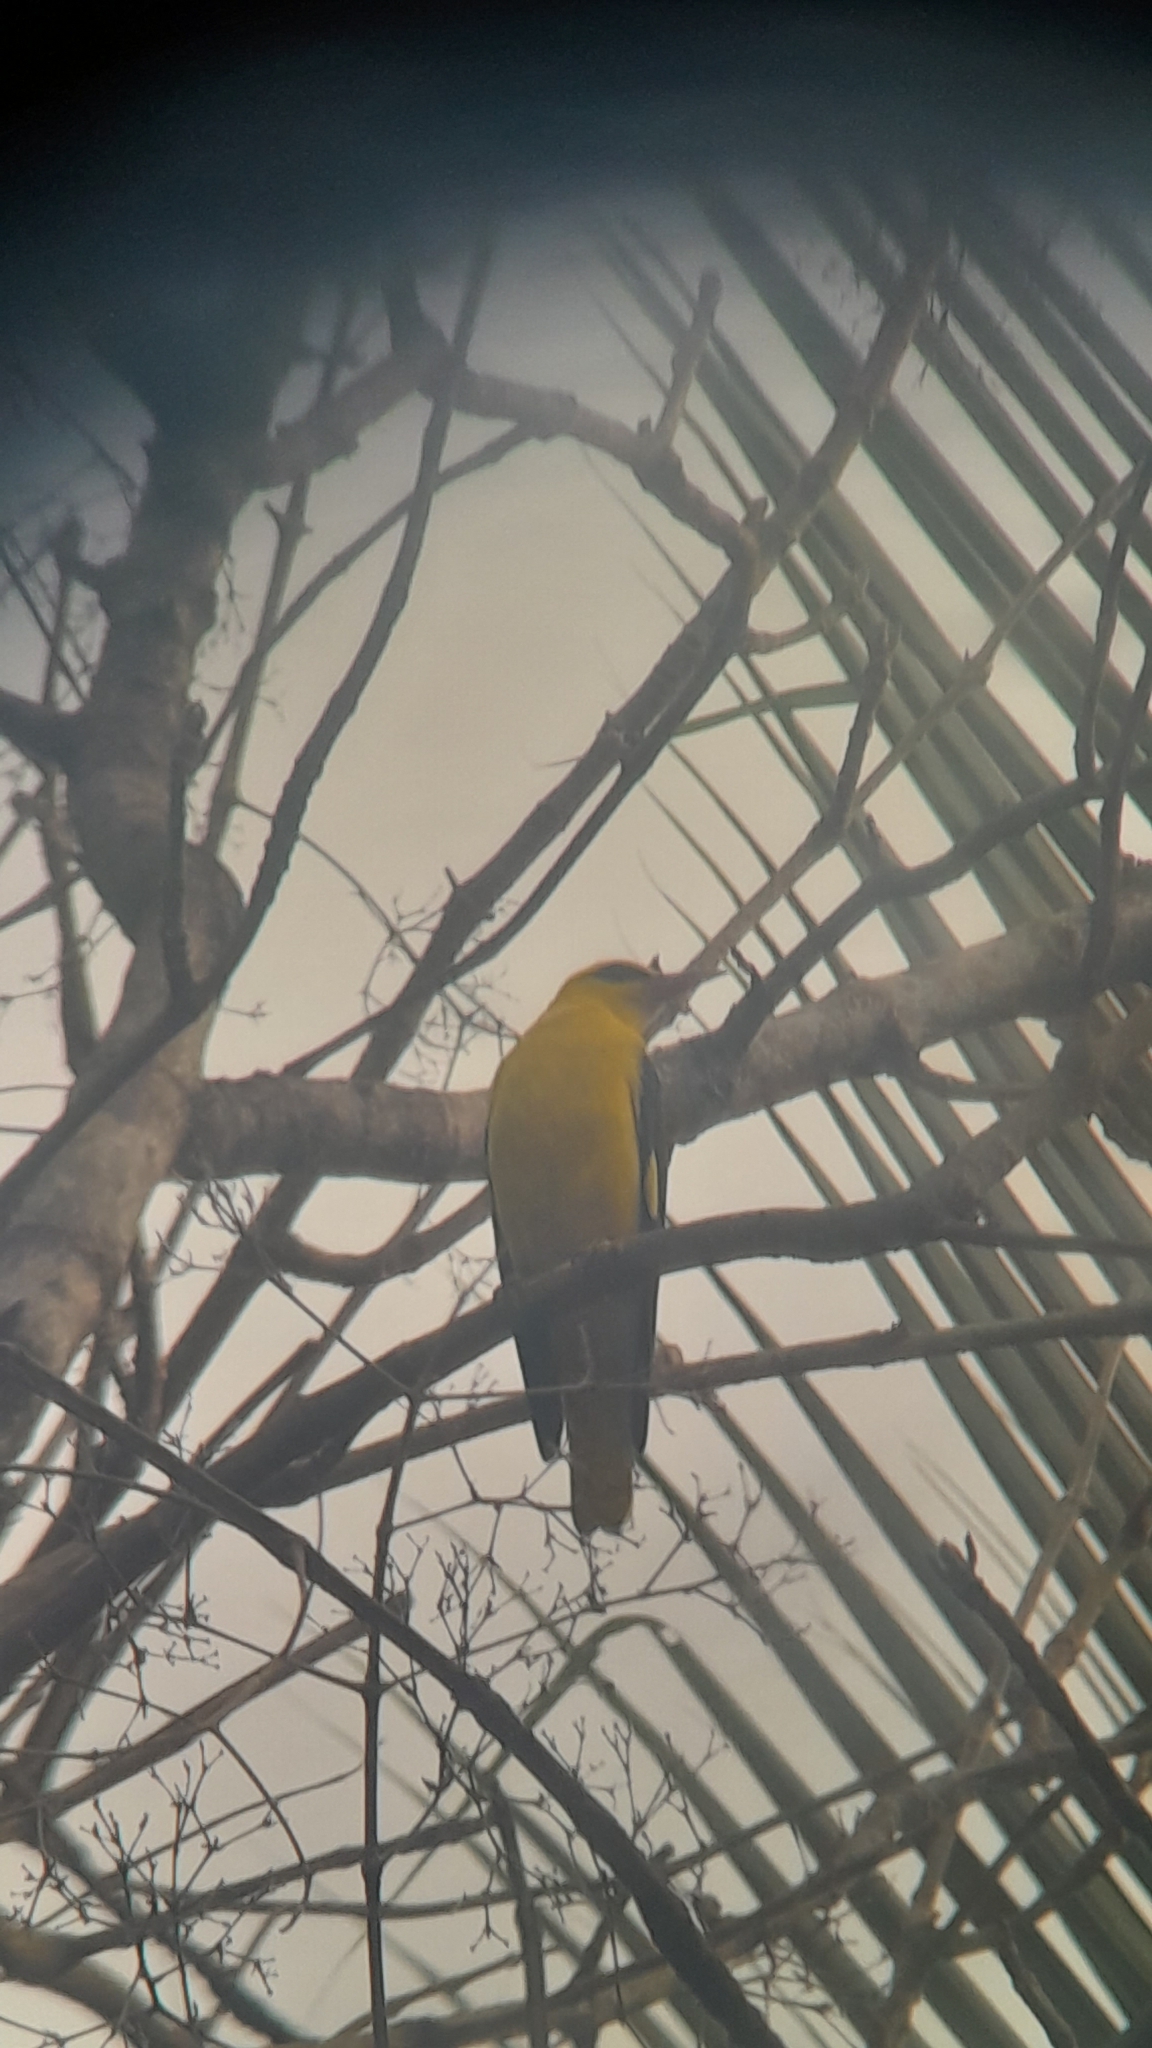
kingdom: Animalia
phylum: Chordata
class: Aves
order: Passeriformes
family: Oriolidae
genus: Oriolus
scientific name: Oriolus kundoo
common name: Indian golden oriole
